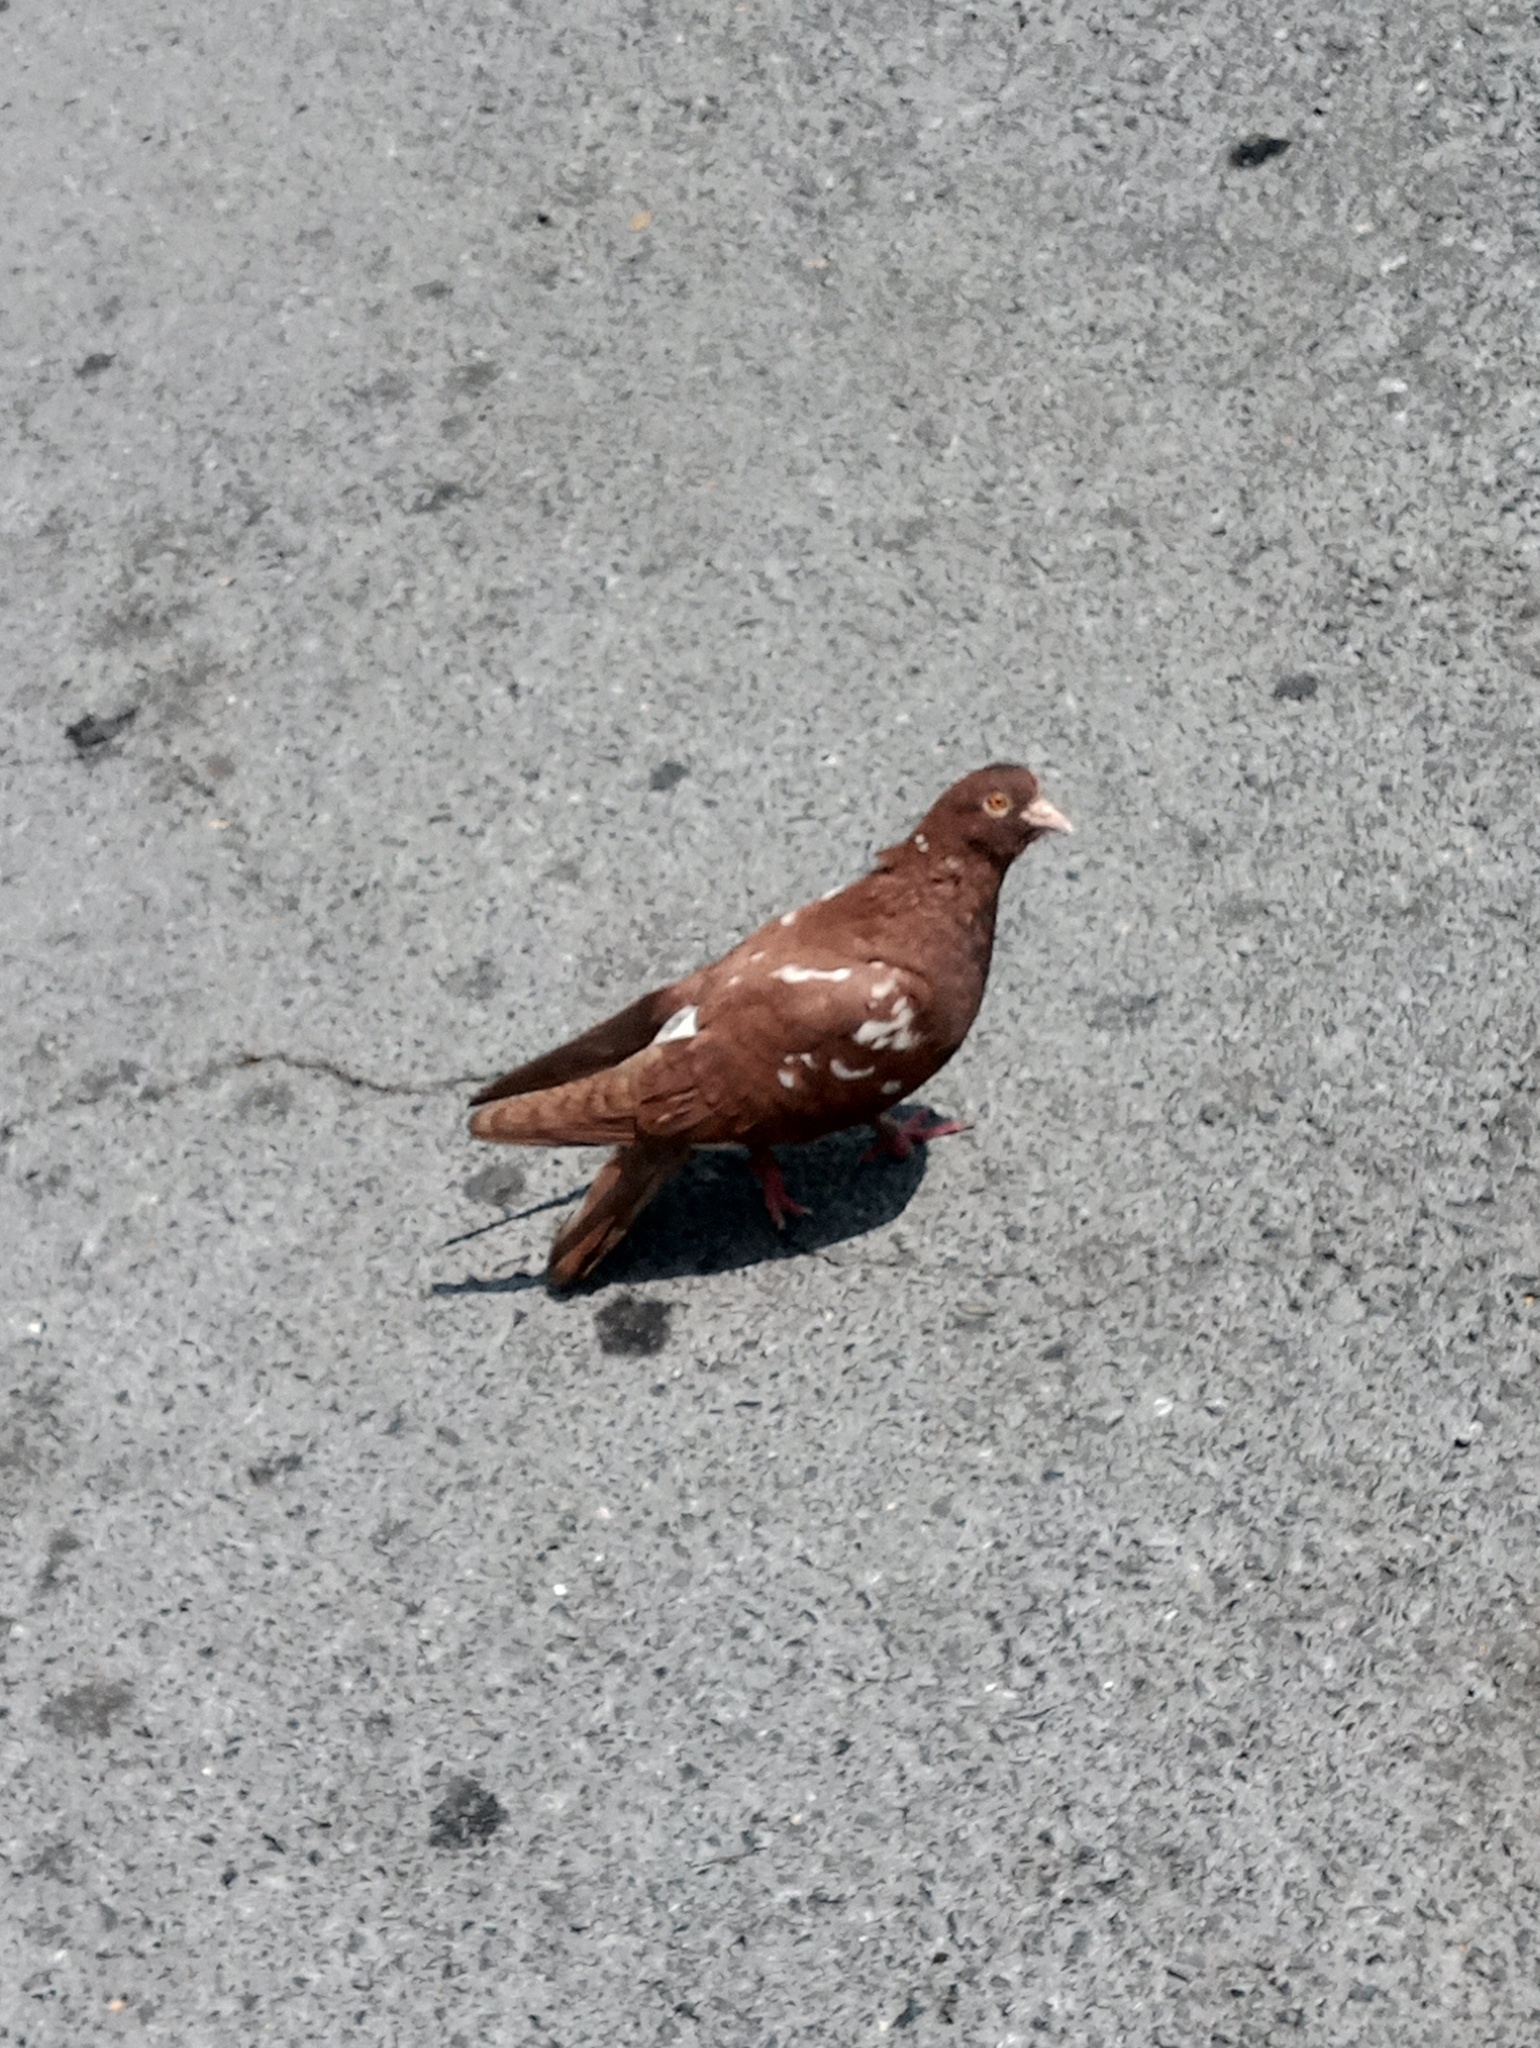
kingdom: Animalia
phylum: Chordata
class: Aves
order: Columbiformes
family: Columbidae
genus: Columba
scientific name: Columba livia
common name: Rock pigeon
